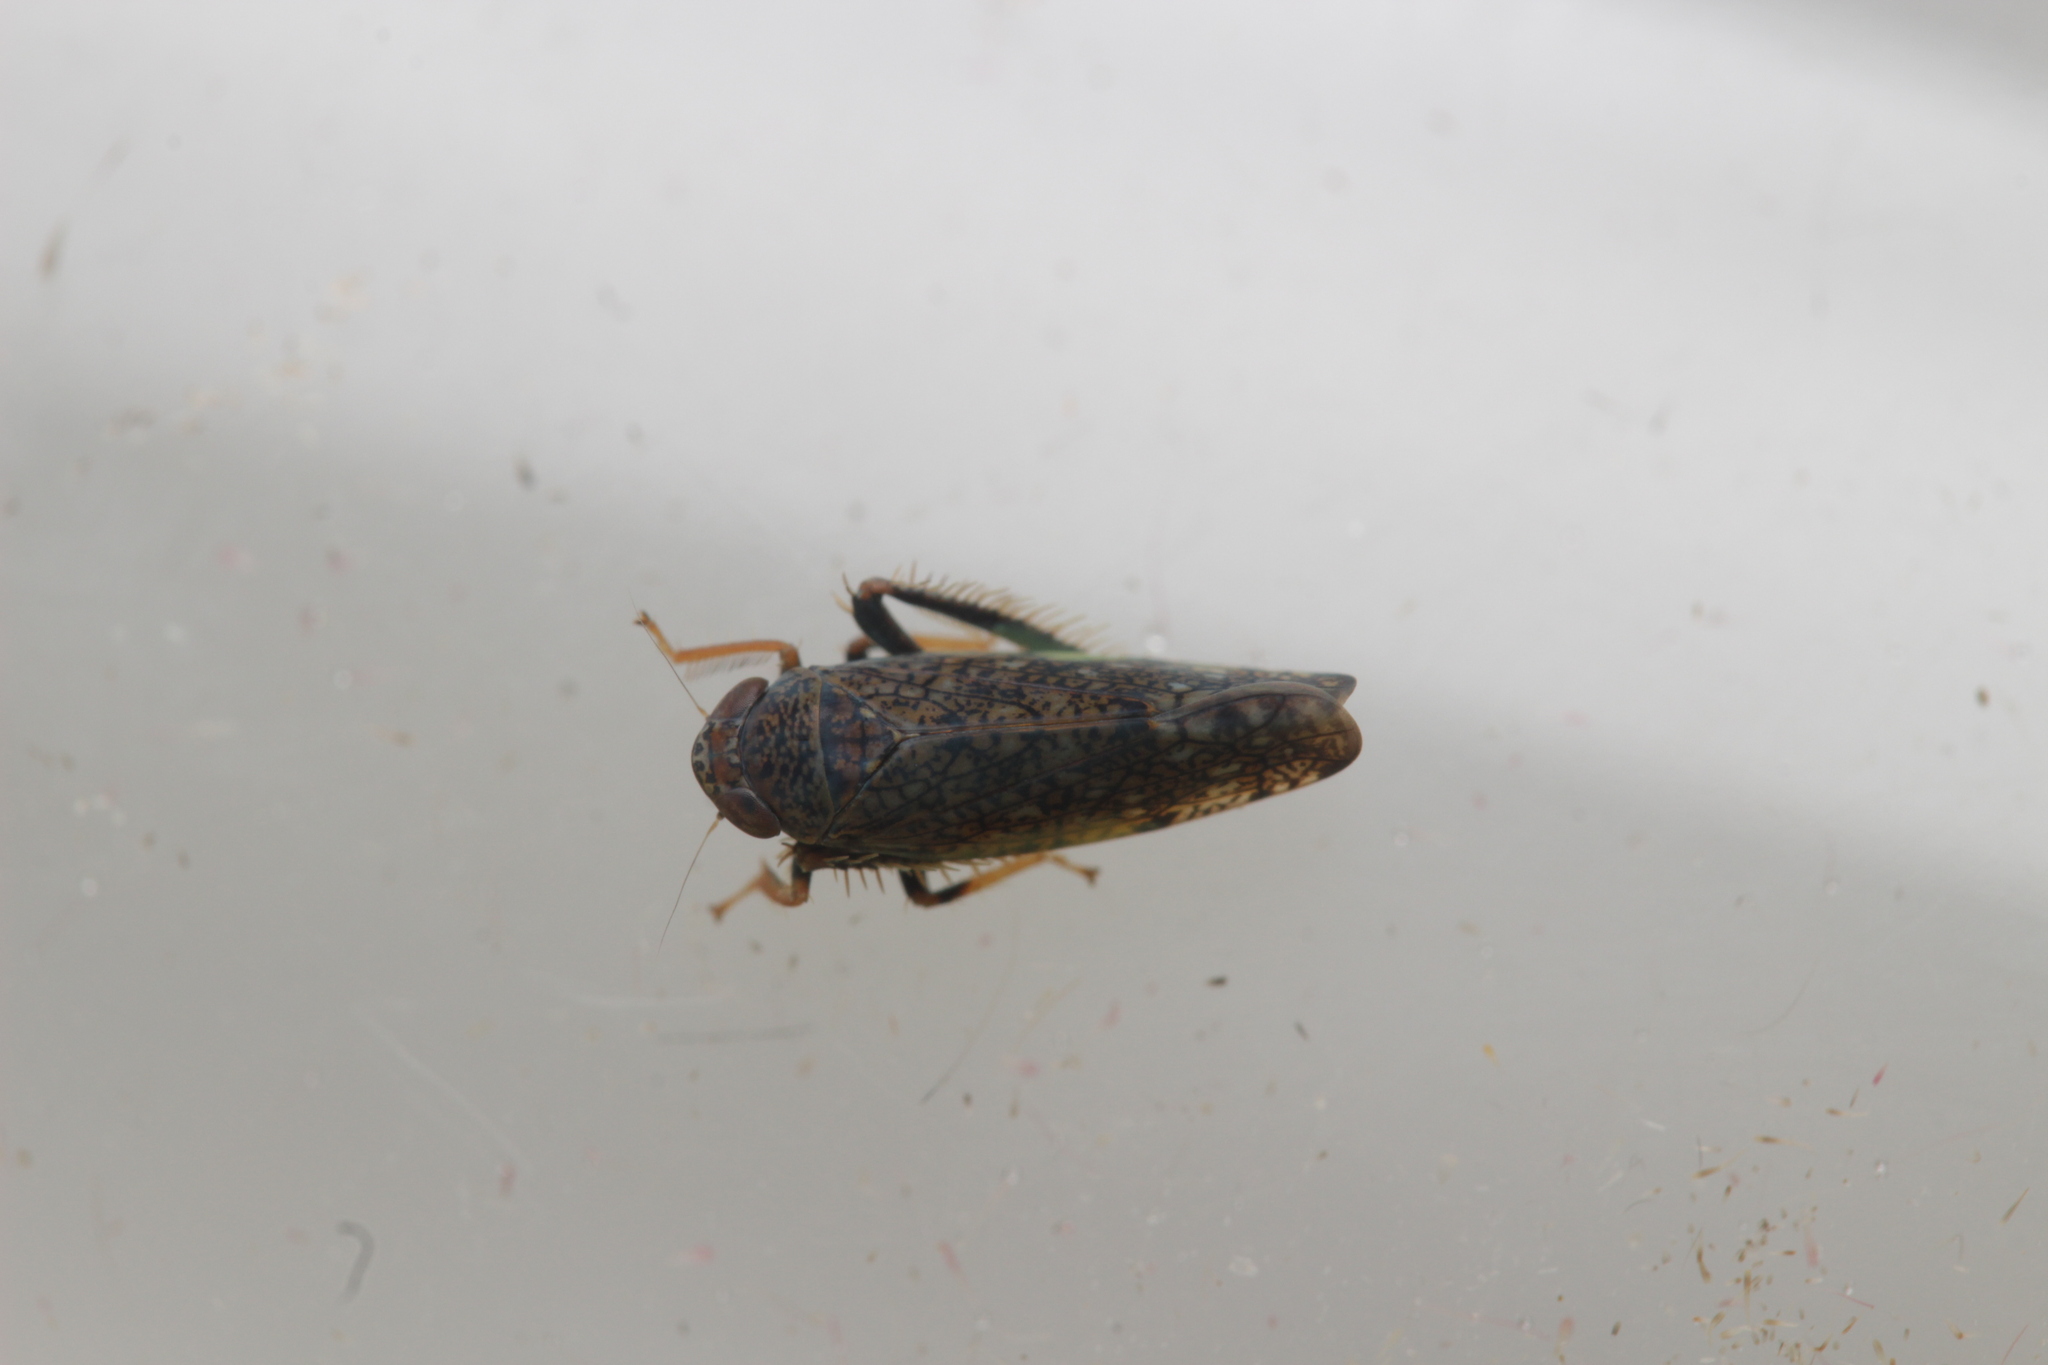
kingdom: Animalia
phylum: Arthropoda
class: Insecta
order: Hemiptera
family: Cicadellidae
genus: Orientus
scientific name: Orientus ishidae
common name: Japanese leafhopper
